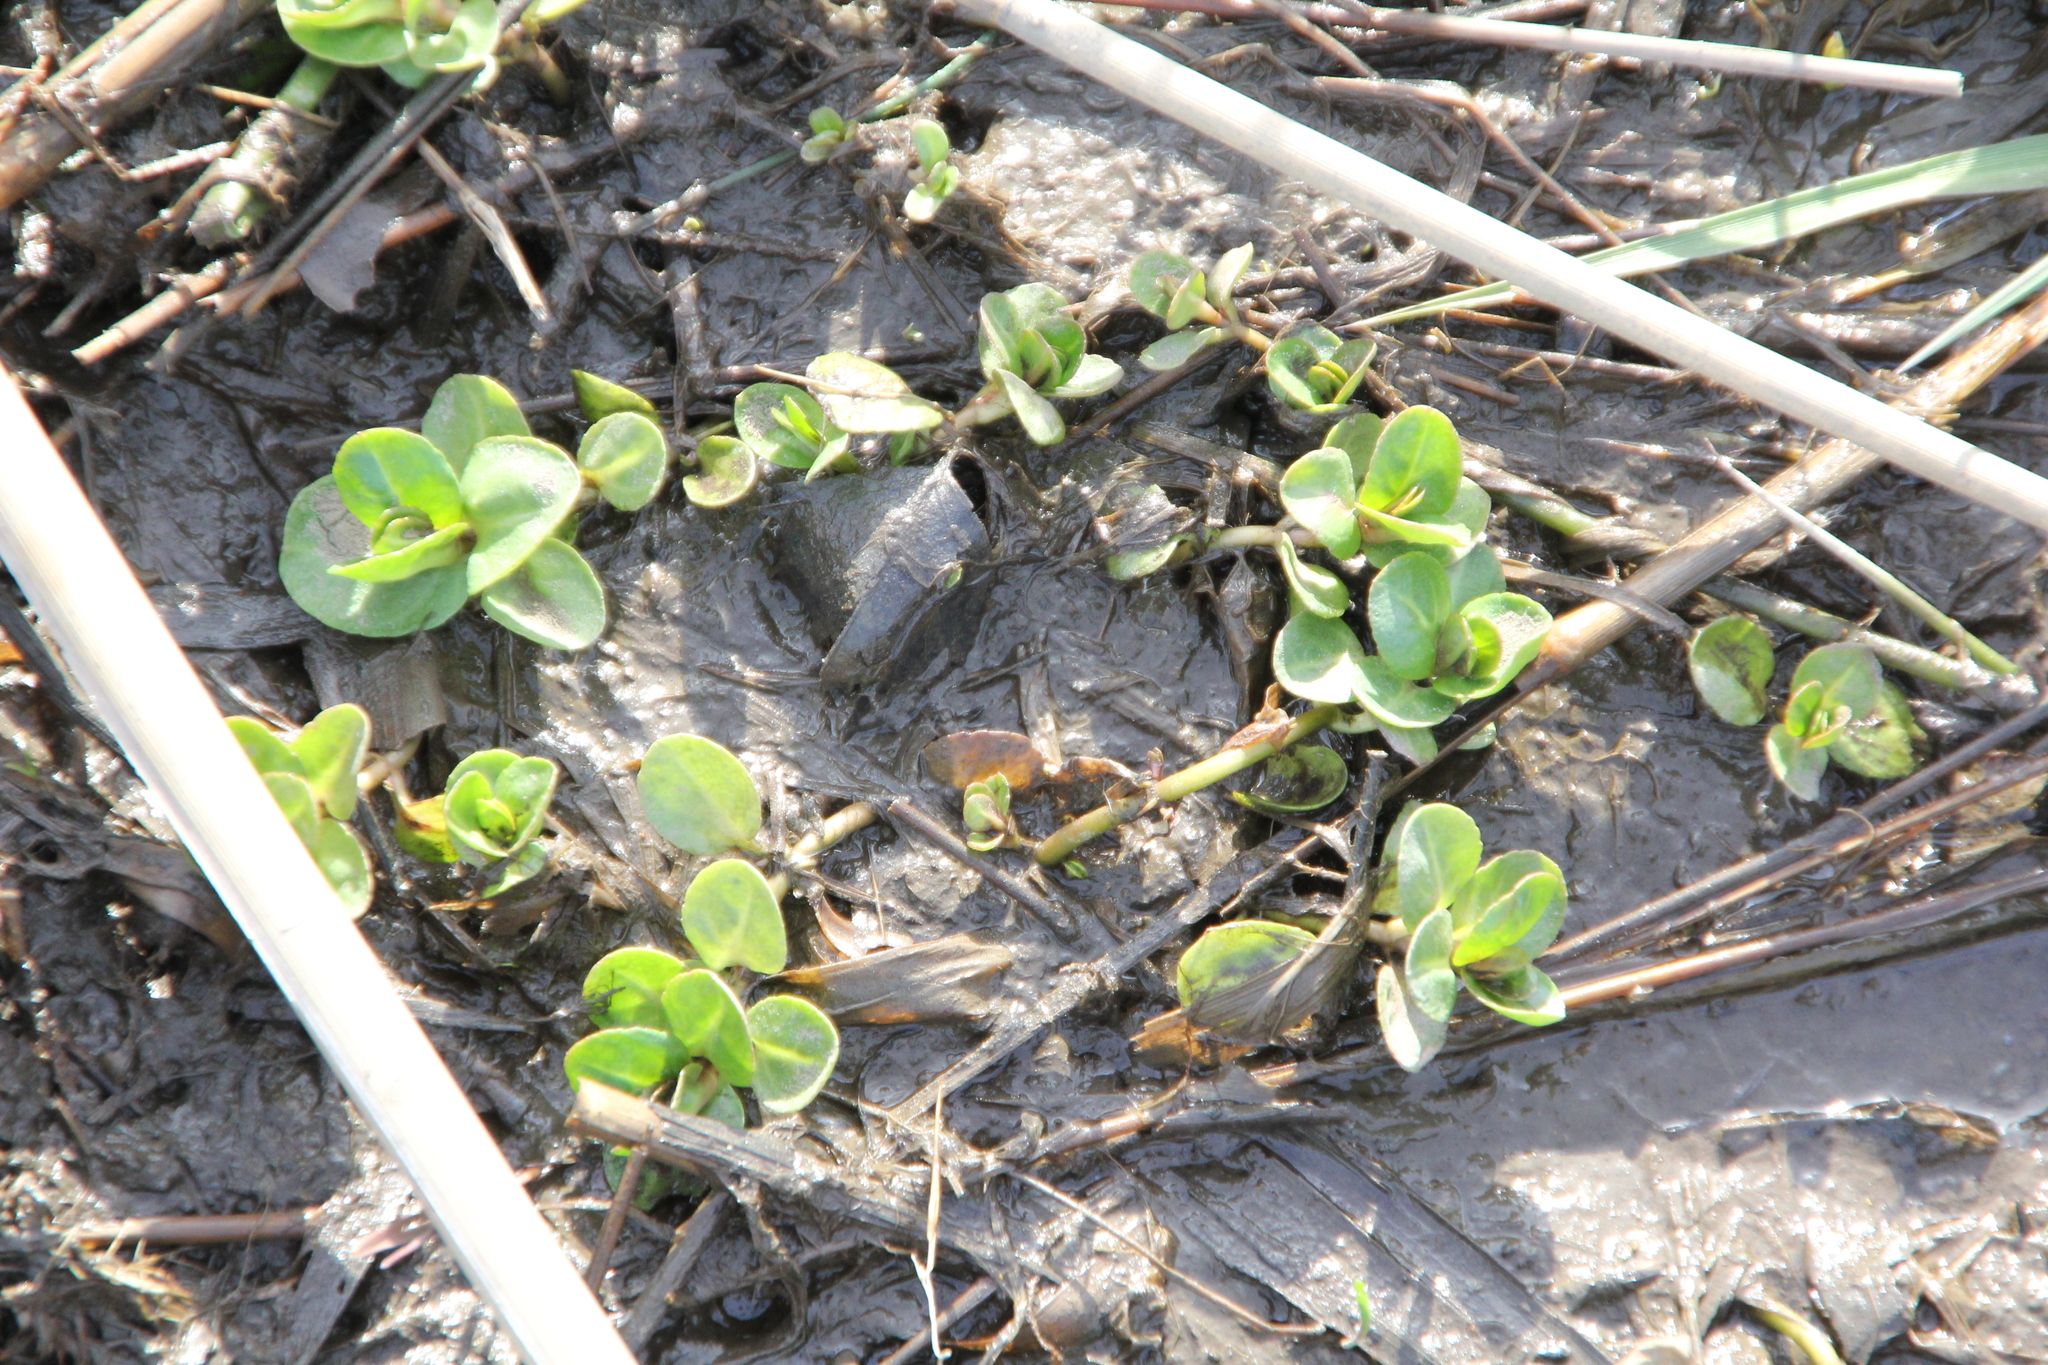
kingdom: Plantae
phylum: Tracheophyta
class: Magnoliopsida
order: Ericales
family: Primulaceae
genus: Lysimachia
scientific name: Lysimachia nummularia
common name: Moneywort
